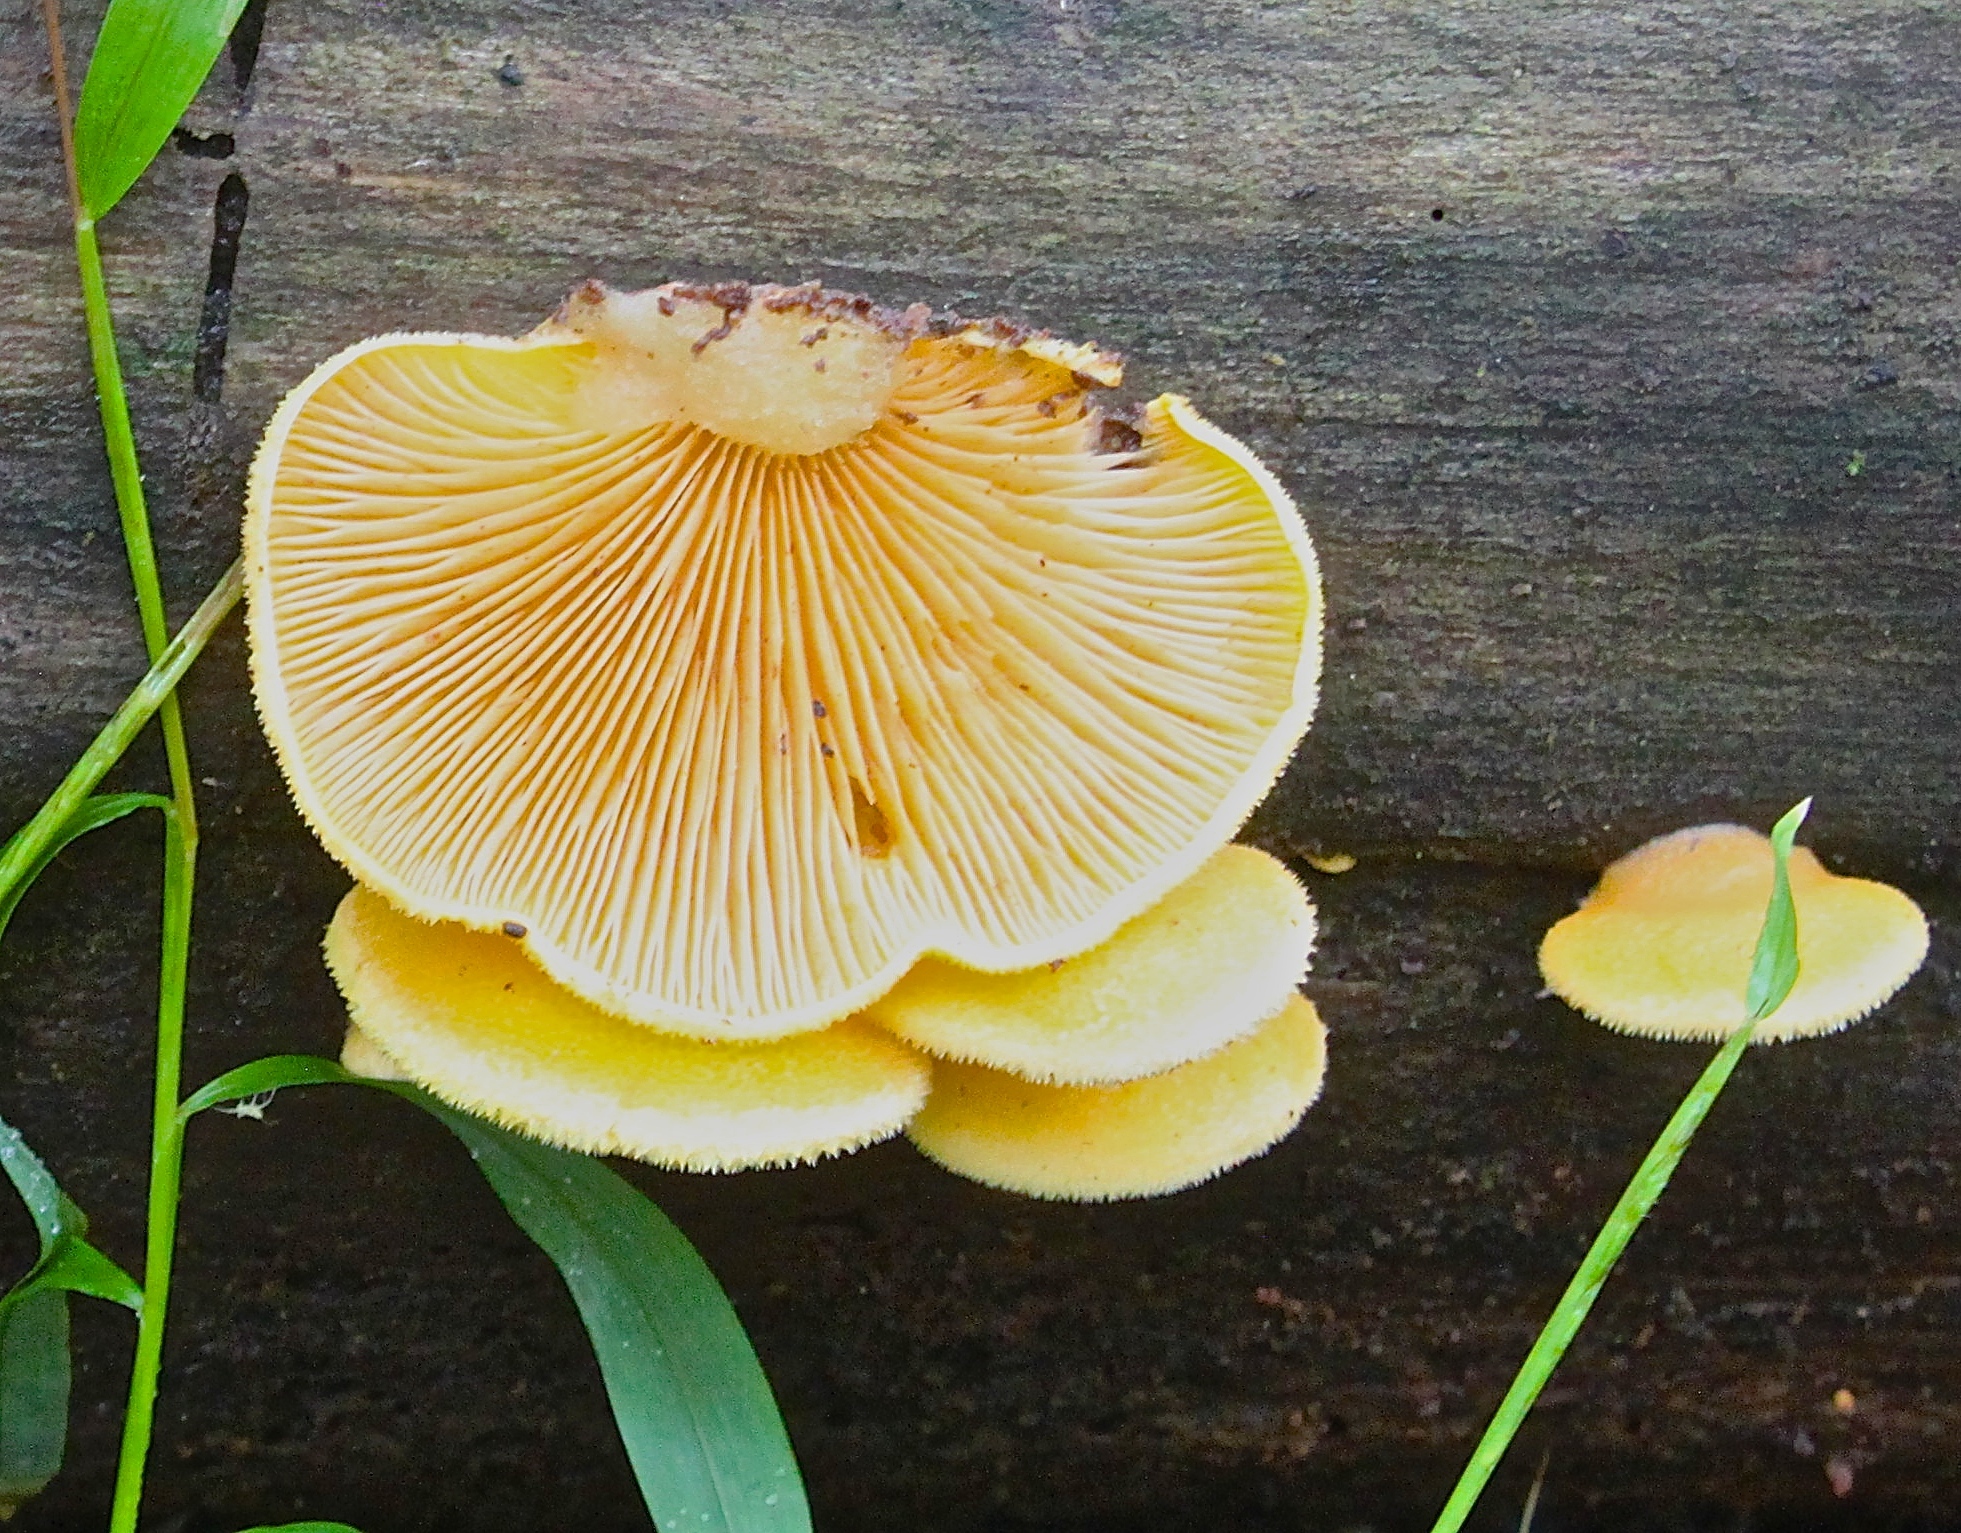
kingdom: Fungi
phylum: Basidiomycota
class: Agaricomycetes
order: Agaricales
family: Phyllotopsidaceae
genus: Phyllotopsis
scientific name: Phyllotopsis nidulans
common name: Orange mock oyster
